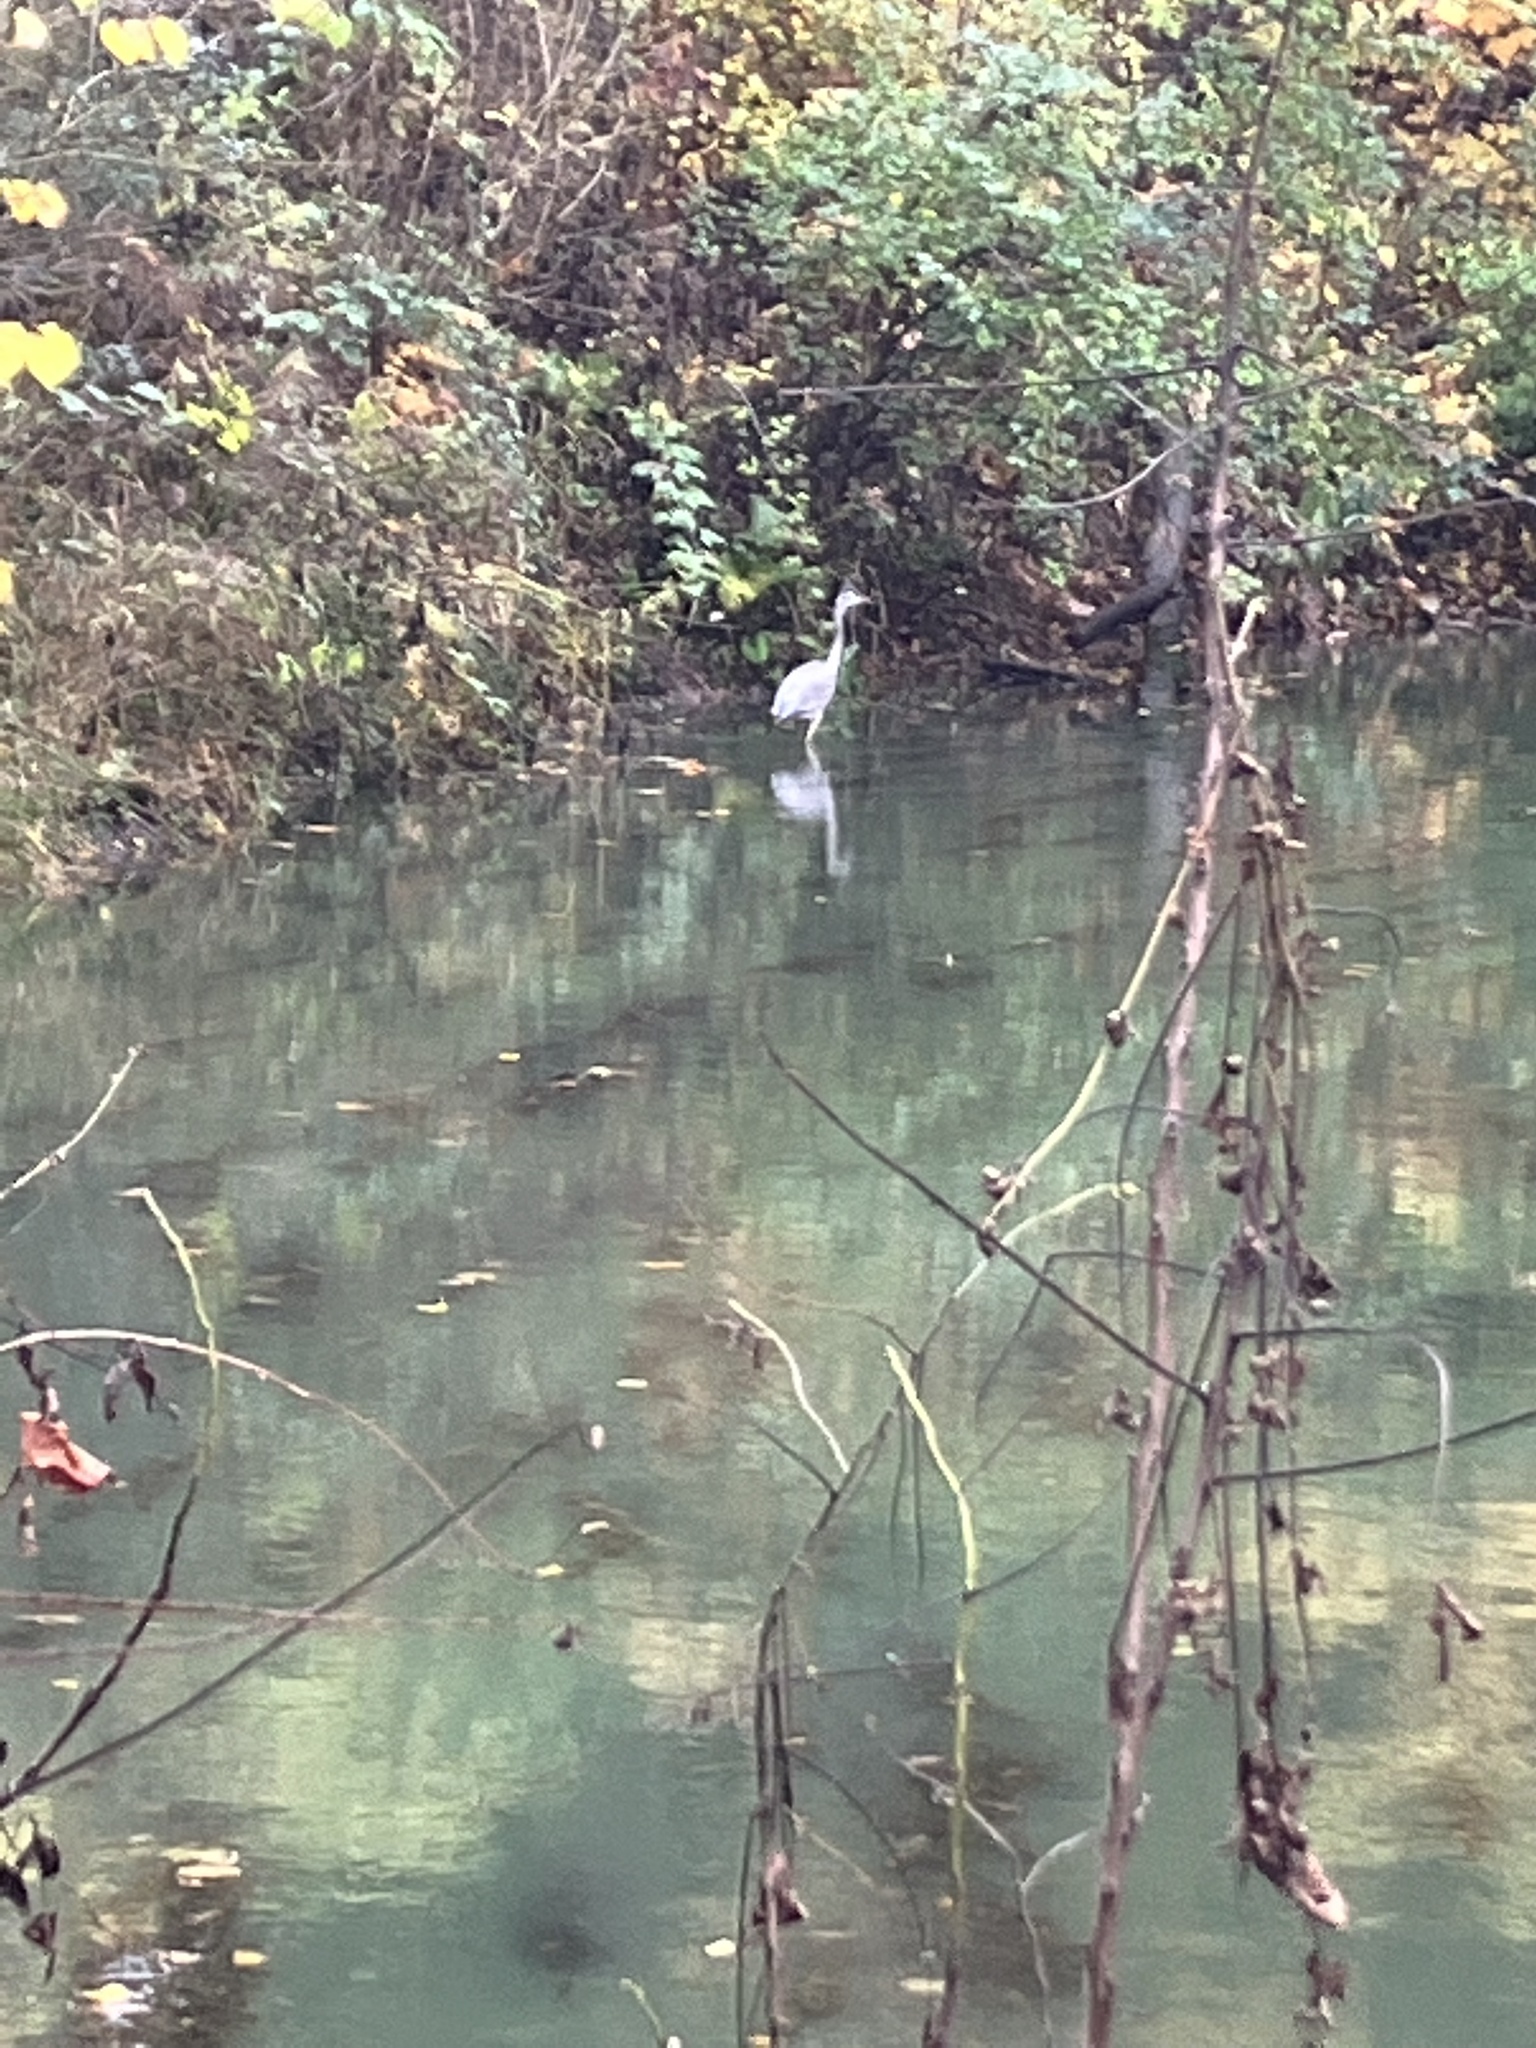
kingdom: Animalia
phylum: Chordata
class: Aves
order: Pelecaniformes
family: Ardeidae
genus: Ardea
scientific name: Ardea herodias
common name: Great blue heron
